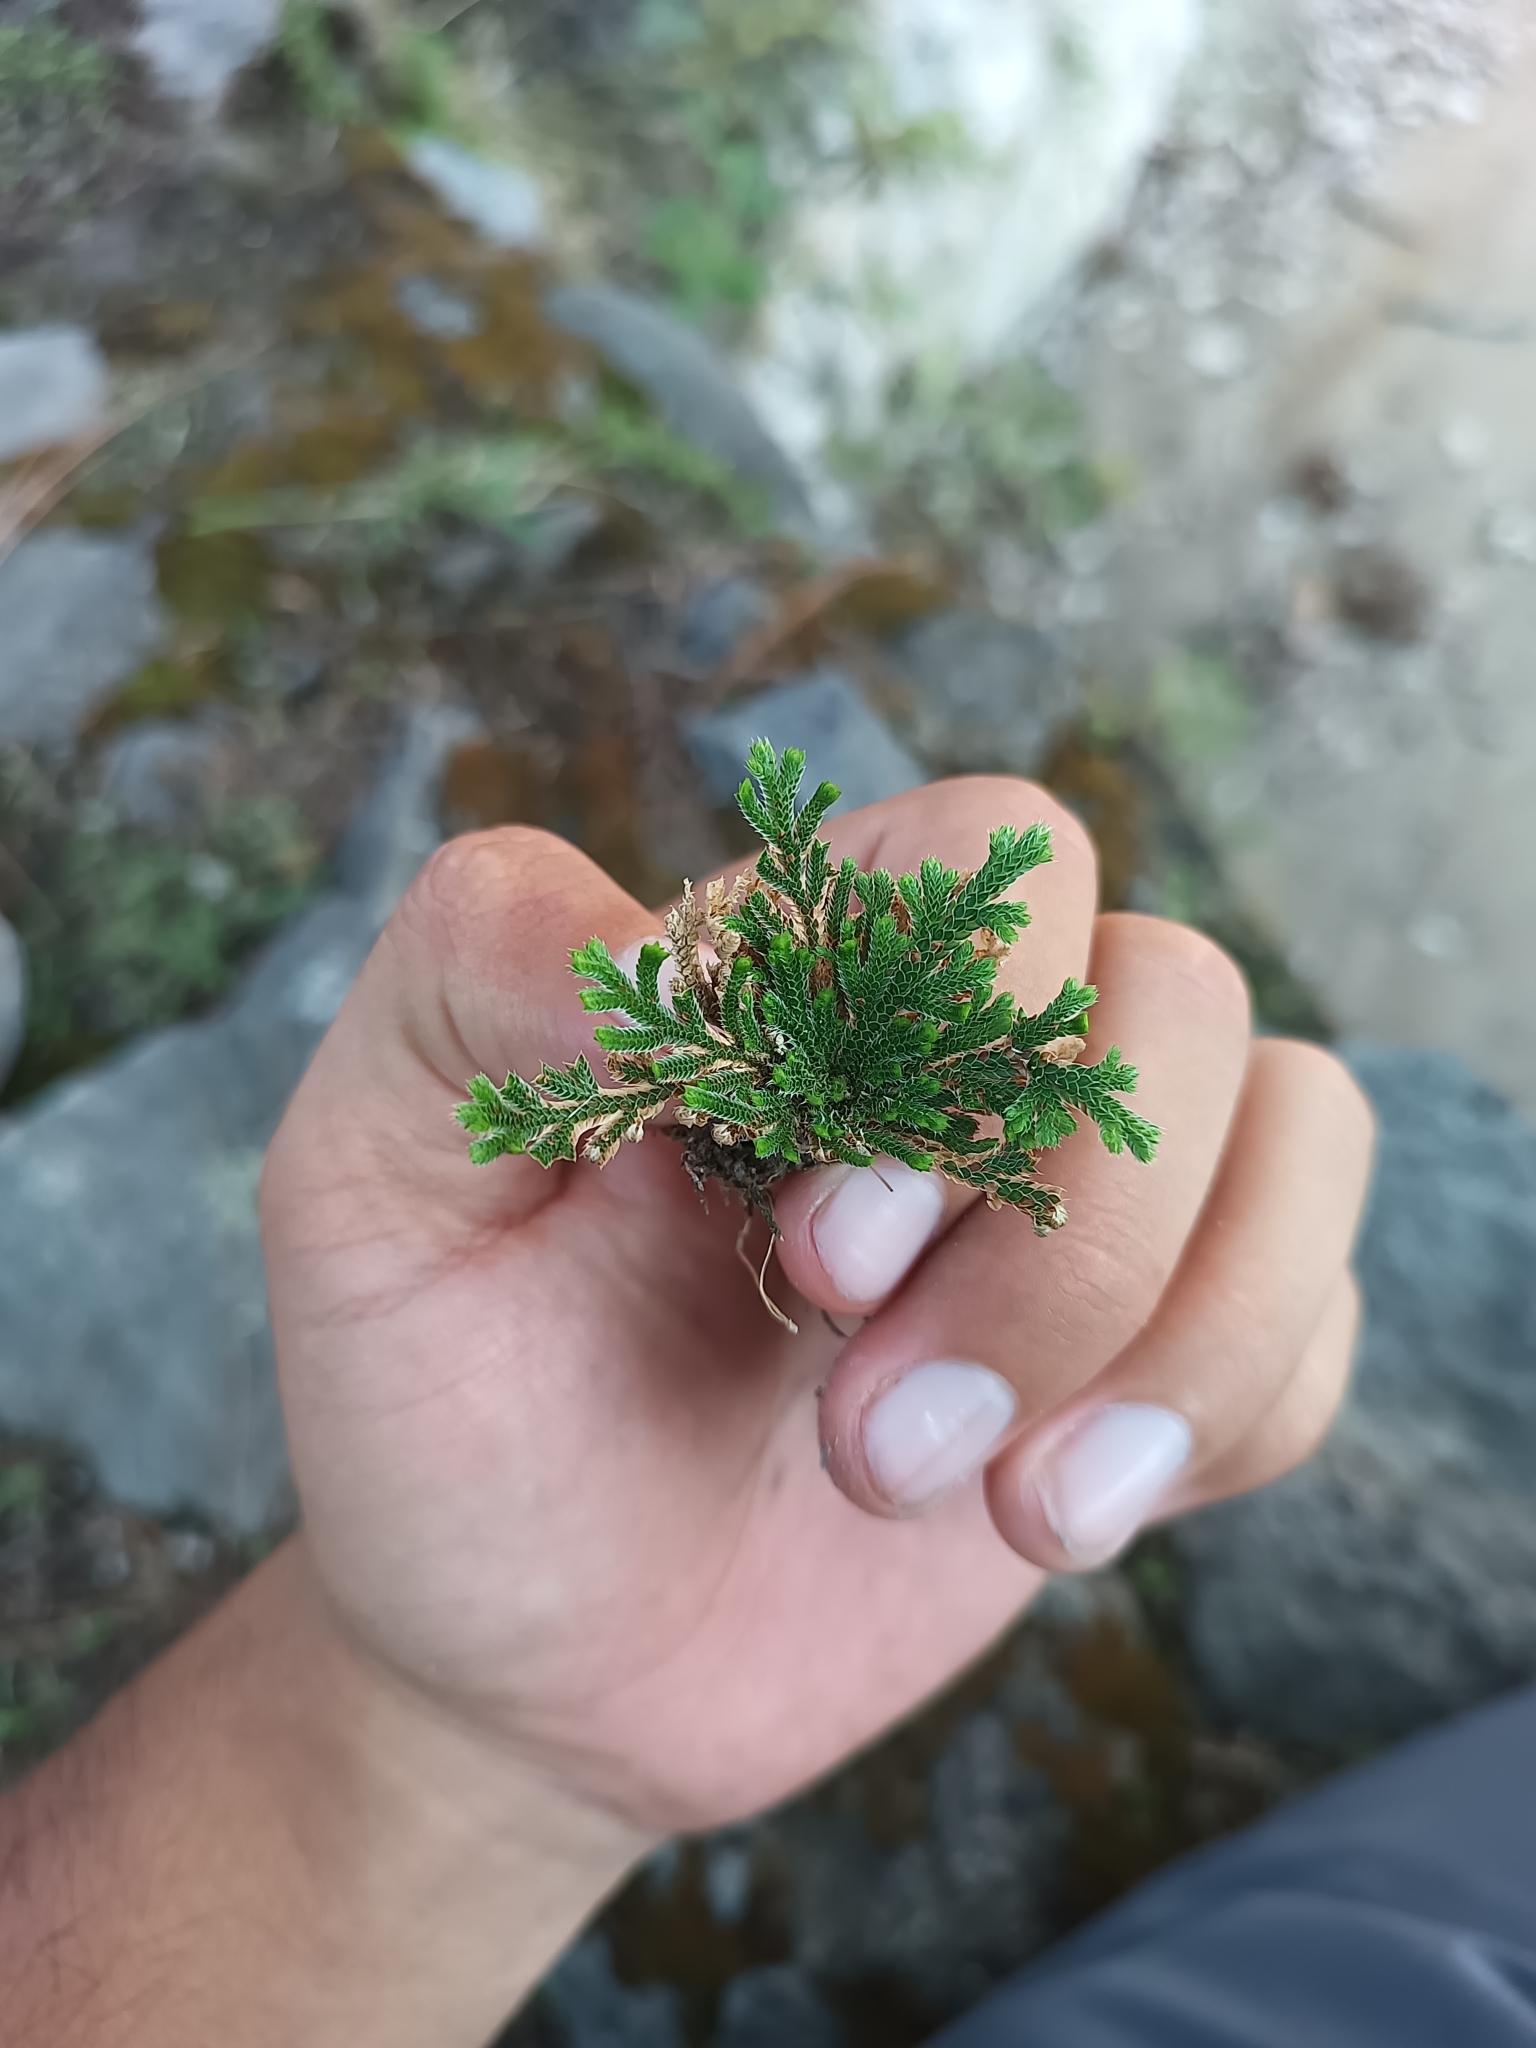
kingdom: Plantae
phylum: Tracheophyta
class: Lycopodiopsida
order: Selaginellales
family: Selaginellaceae
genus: Selaginella
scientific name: Selaginella lepidophylla
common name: Rose-of-jericho
